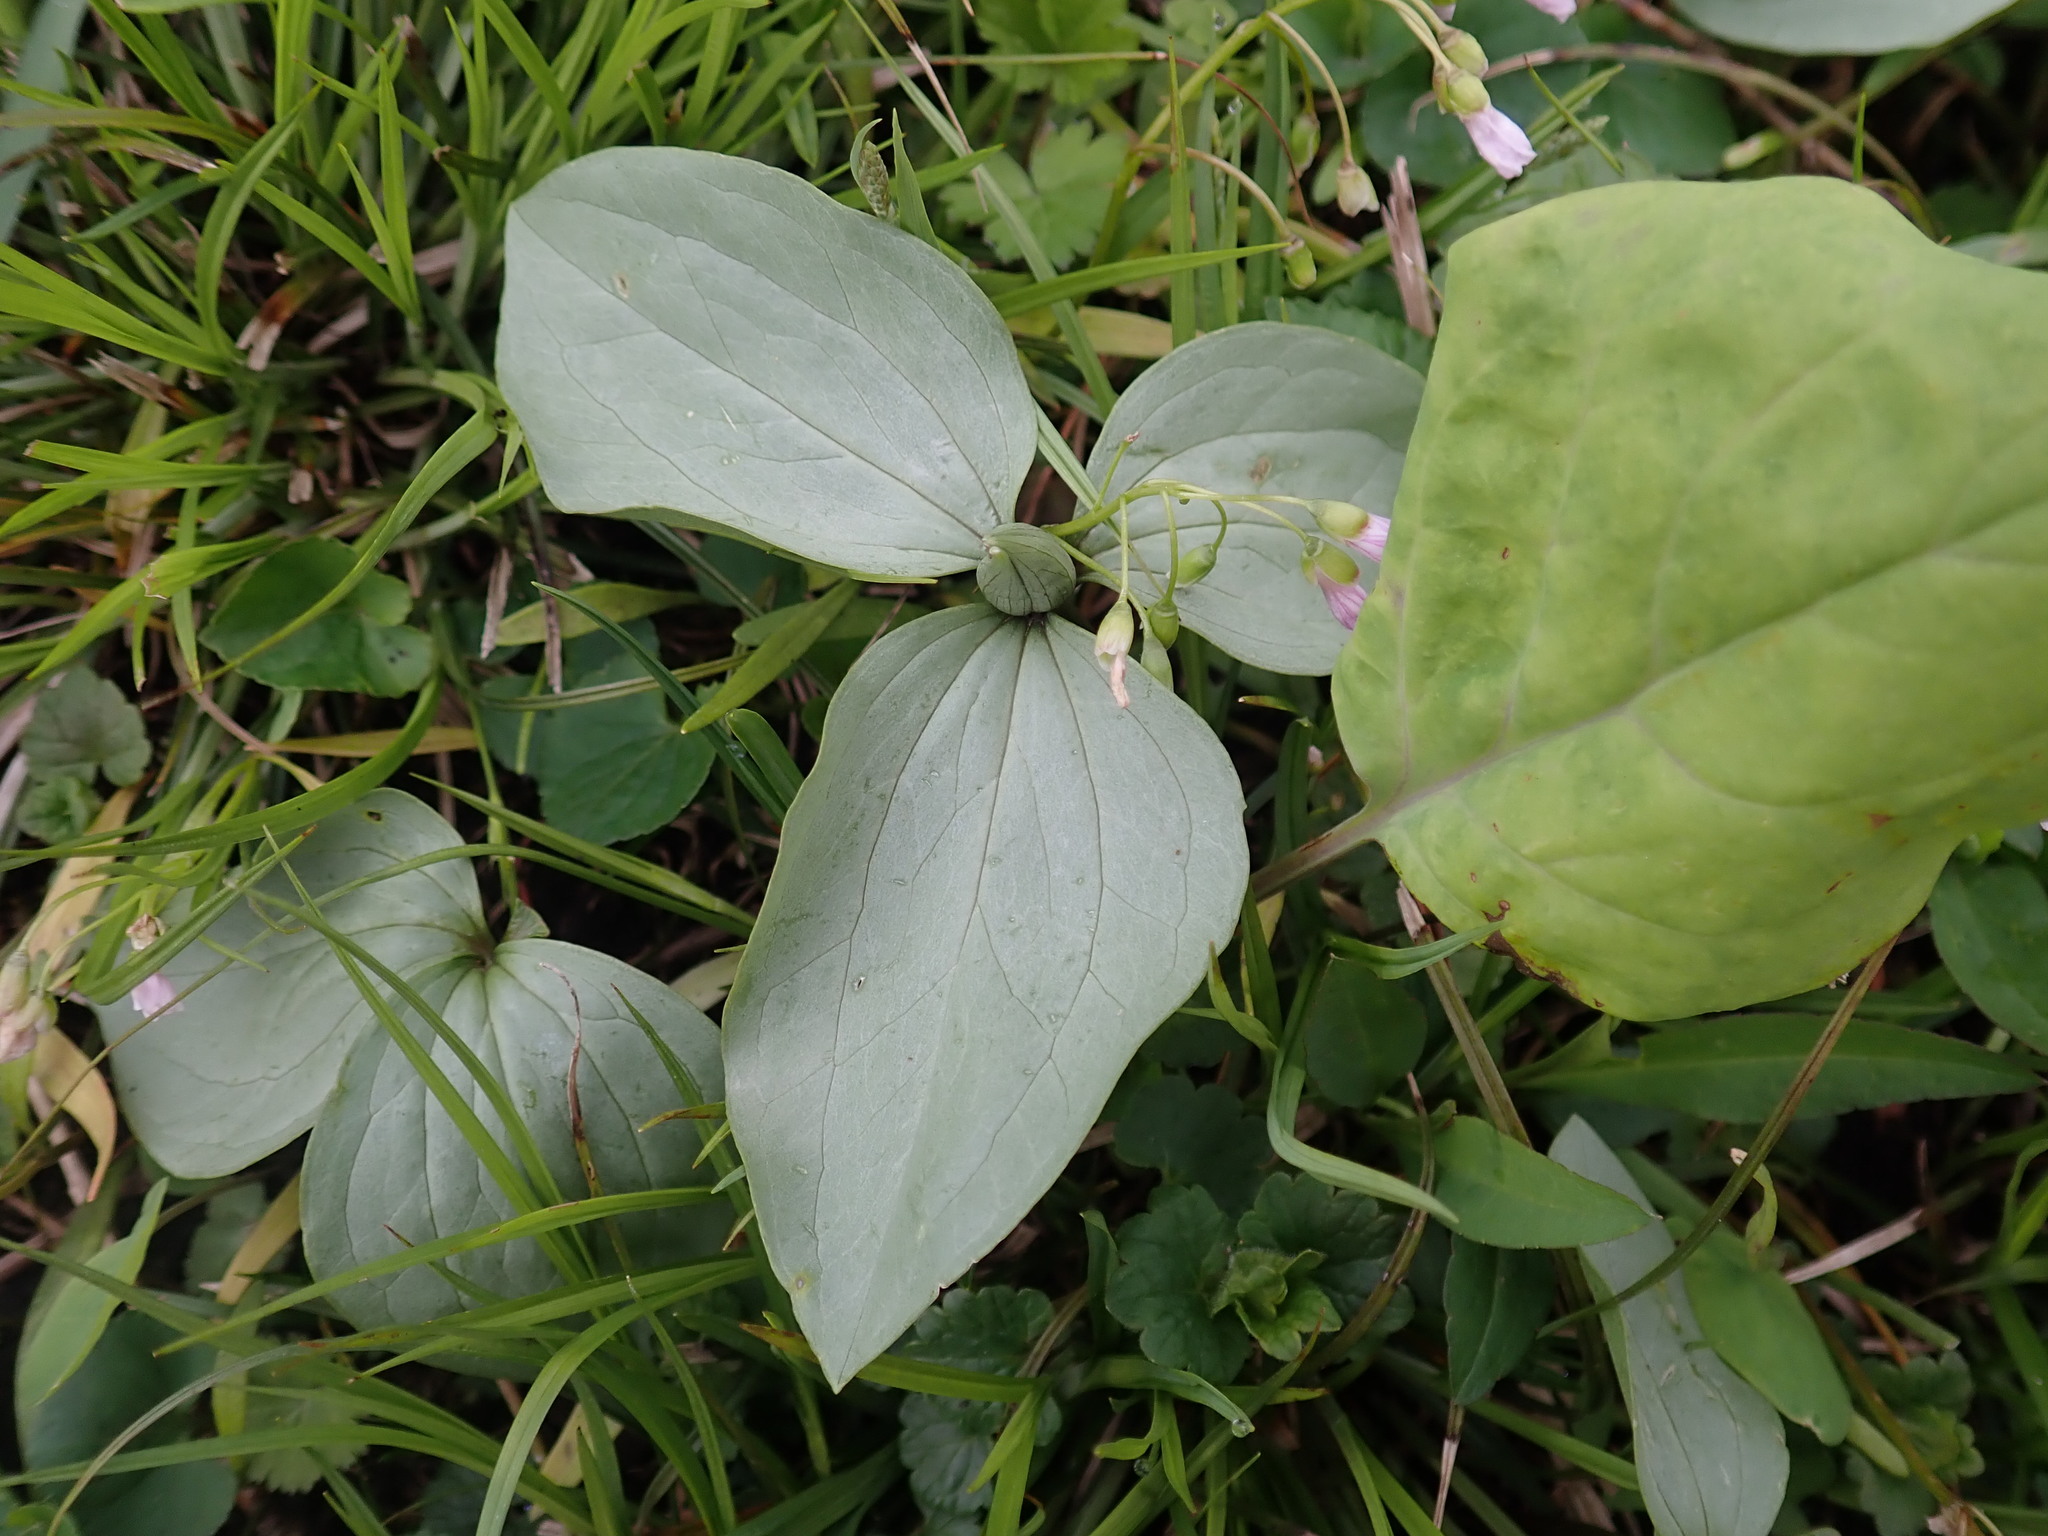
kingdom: Plantae
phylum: Tracheophyta
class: Liliopsida
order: Liliales
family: Melanthiaceae
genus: Trillium
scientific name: Trillium recurvatum
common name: Bloody butcher
